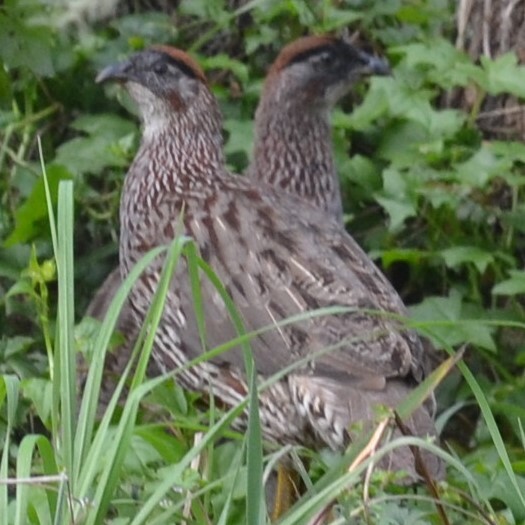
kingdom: Animalia
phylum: Chordata
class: Aves
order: Galliformes
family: Phasianidae
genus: Pternistis
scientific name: Pternistis erckelii
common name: Erckel's francolin
